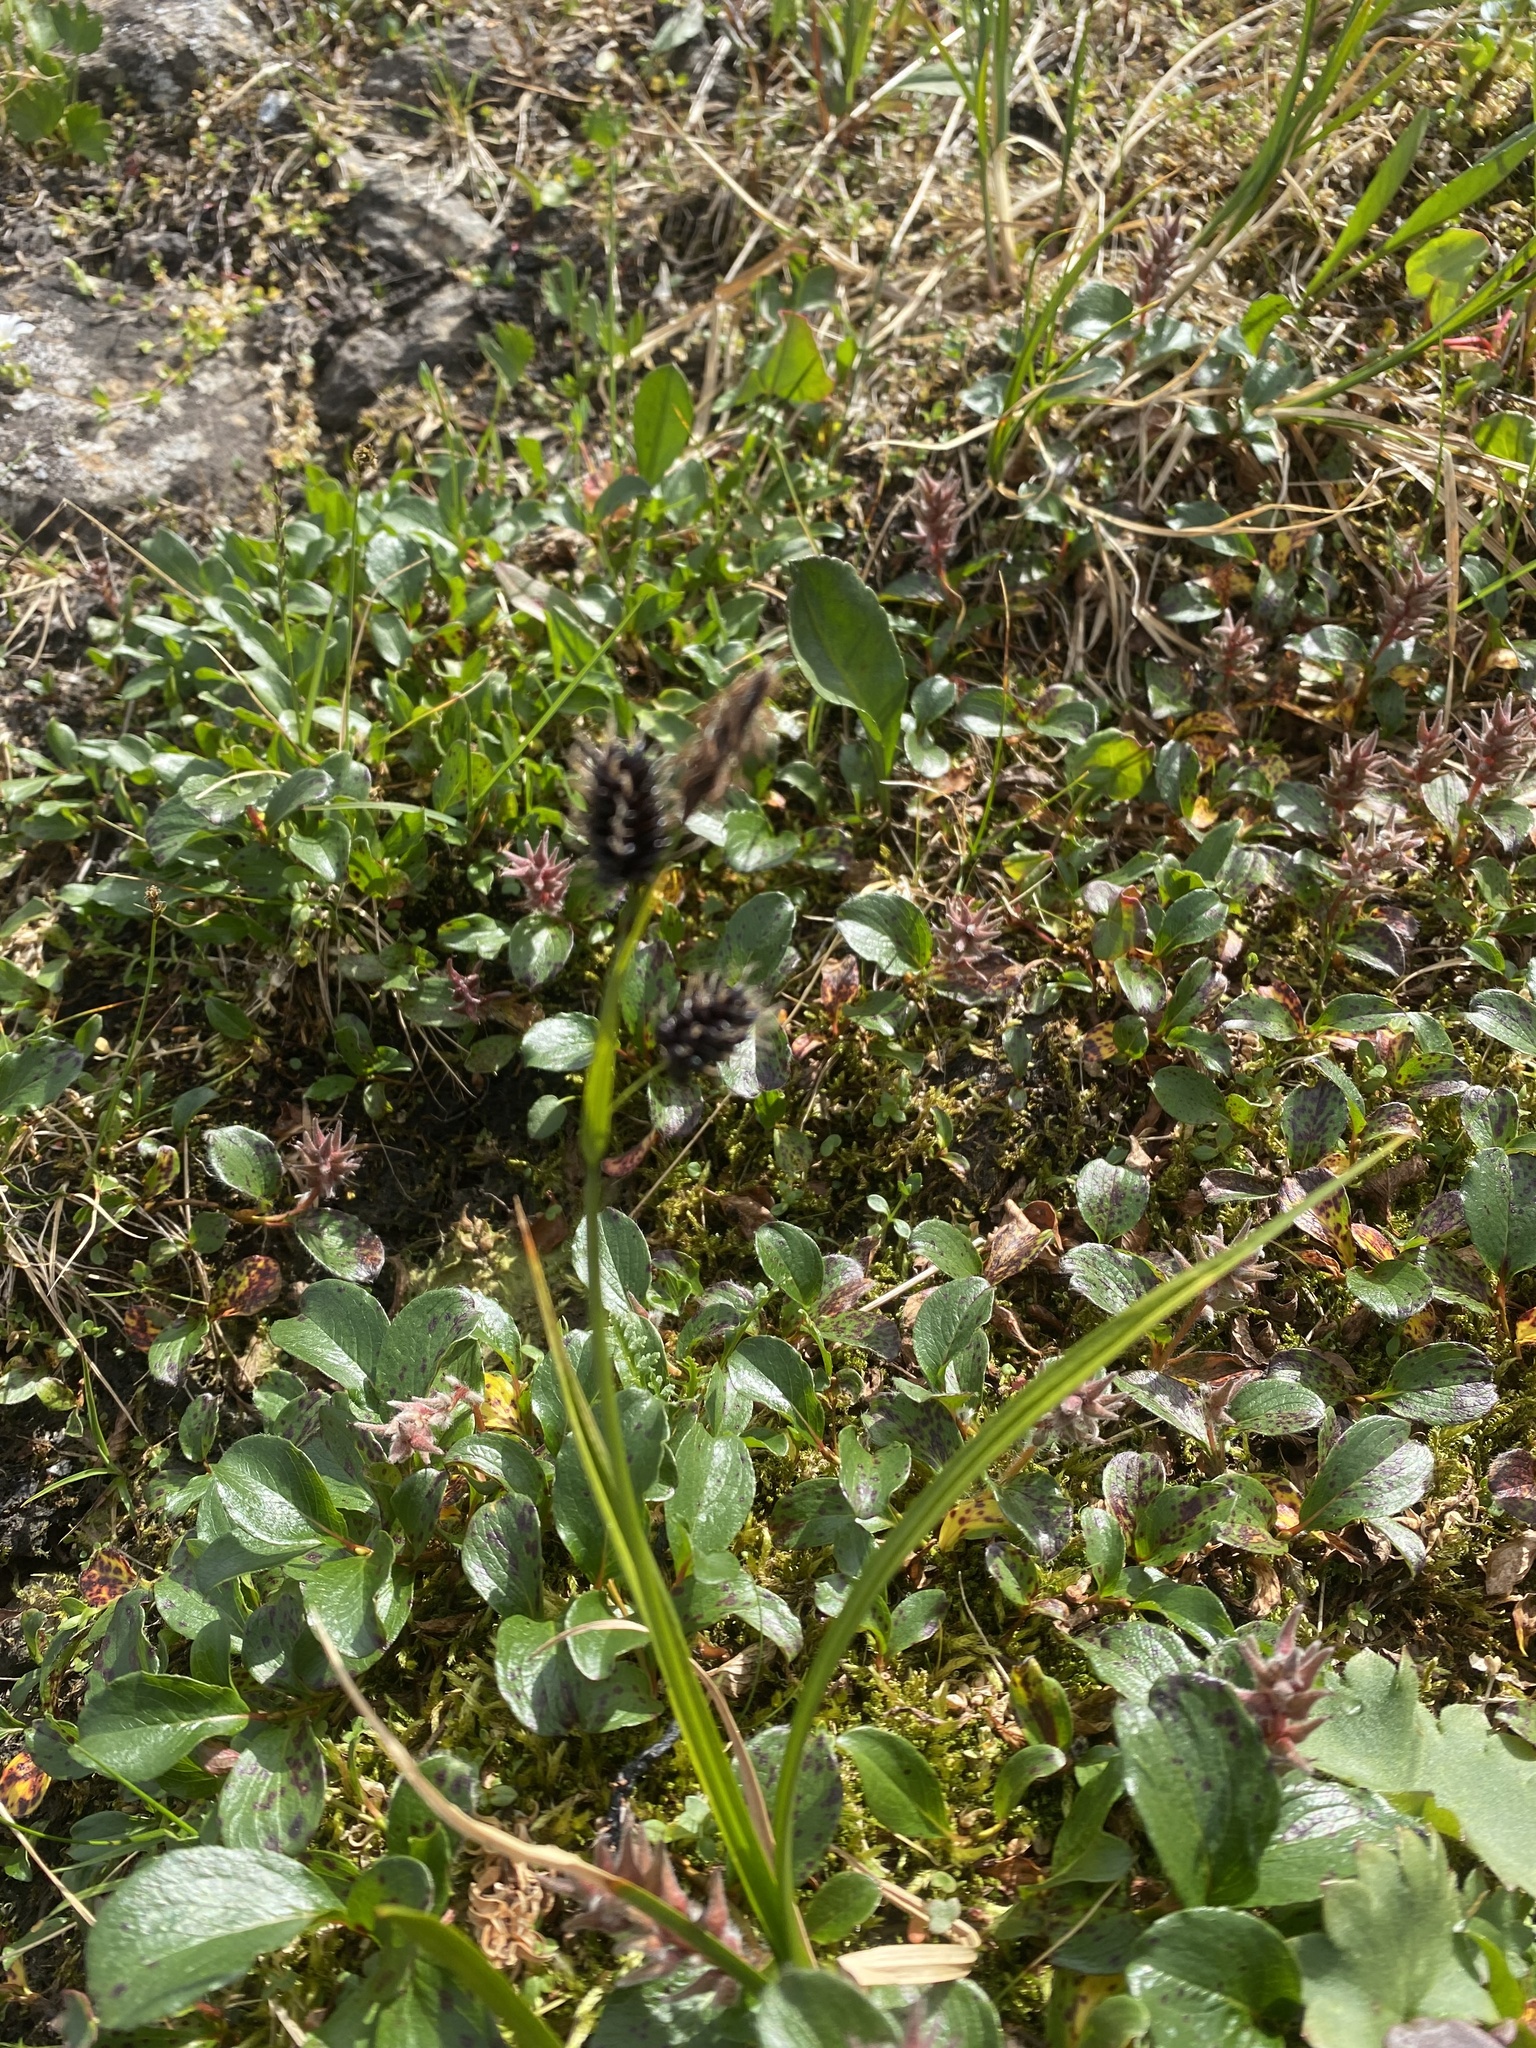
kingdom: Plantae
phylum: Tracheophyta
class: Liliopsida
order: Poales
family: Cyperaceae
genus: Carex
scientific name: Carex saxatilis
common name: Russet sedge
